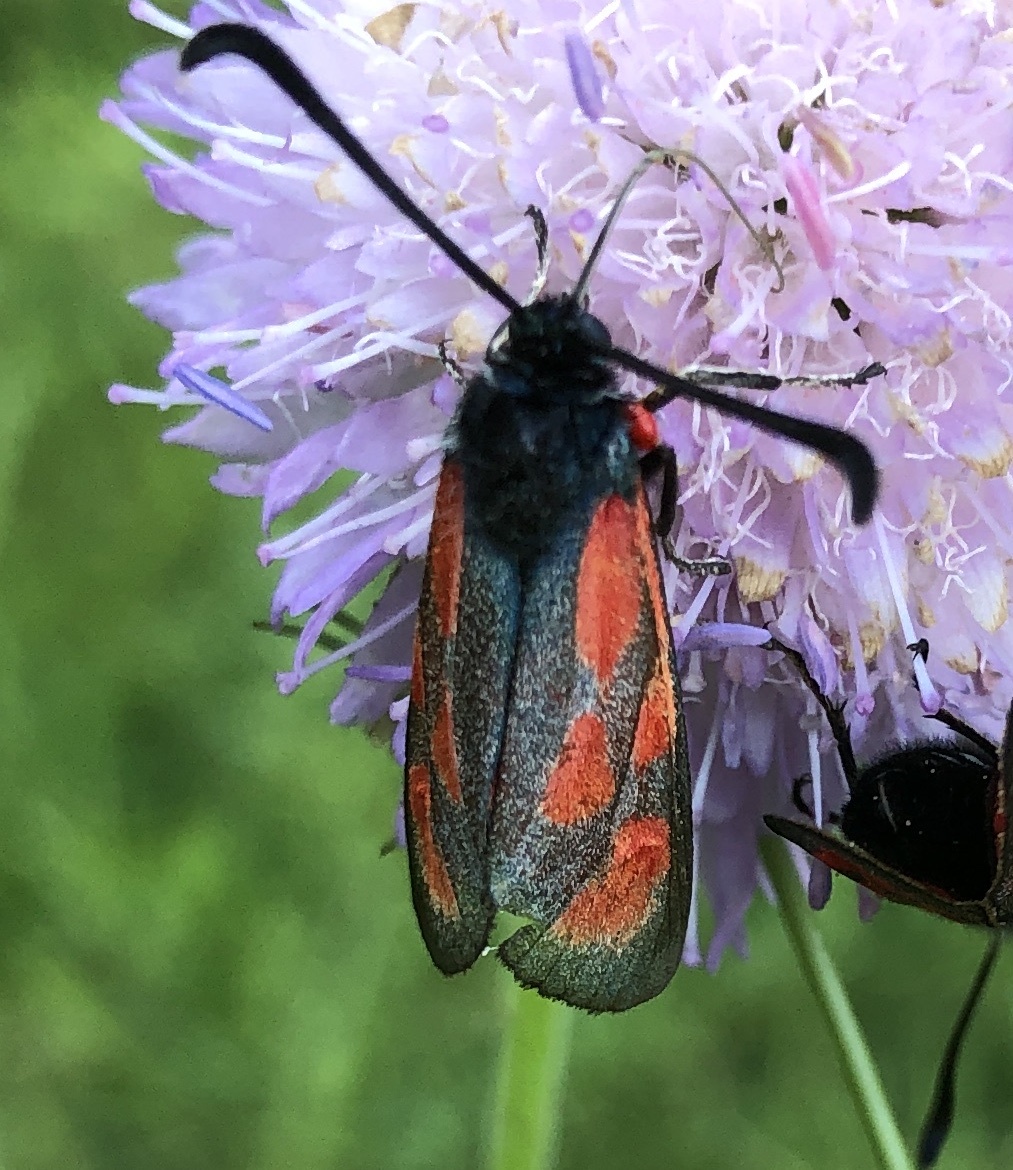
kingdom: Animalia
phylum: Arthropoda
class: Insecta
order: Lepidoptera
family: Zygaenidae
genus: Zygaena
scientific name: Zygaena loti
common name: Slender scotch burnet
